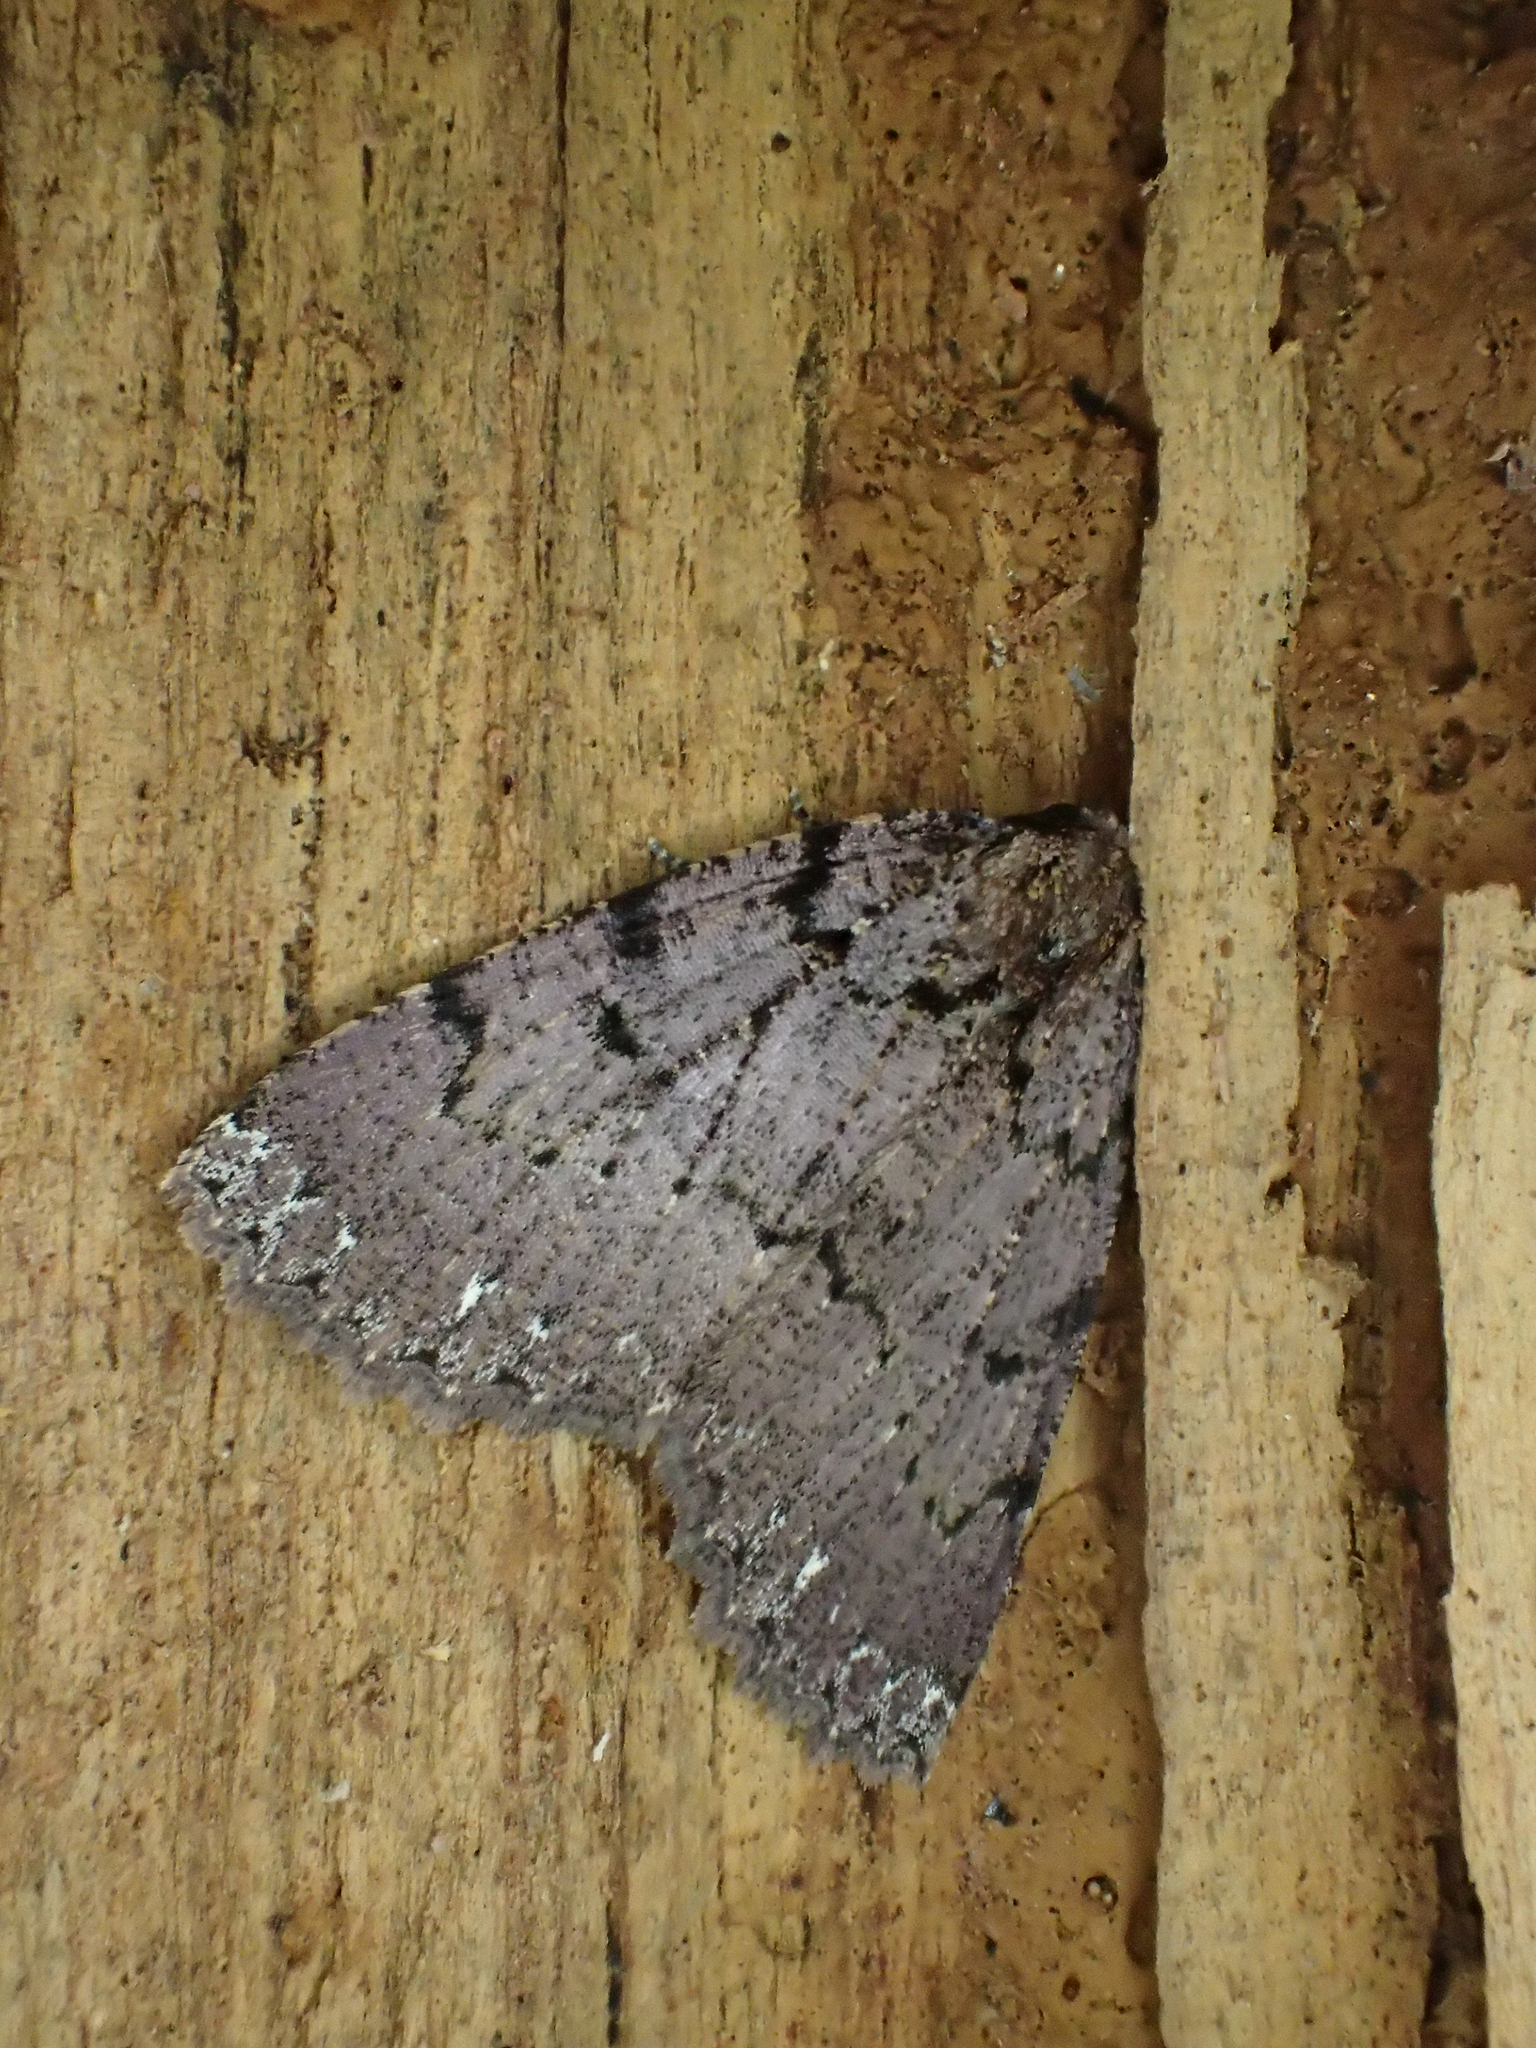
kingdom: Animalia
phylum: Arthropoda
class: Insecta
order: Lepidoptera
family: Geometridae
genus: Prosotera
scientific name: Prosotera metopora
